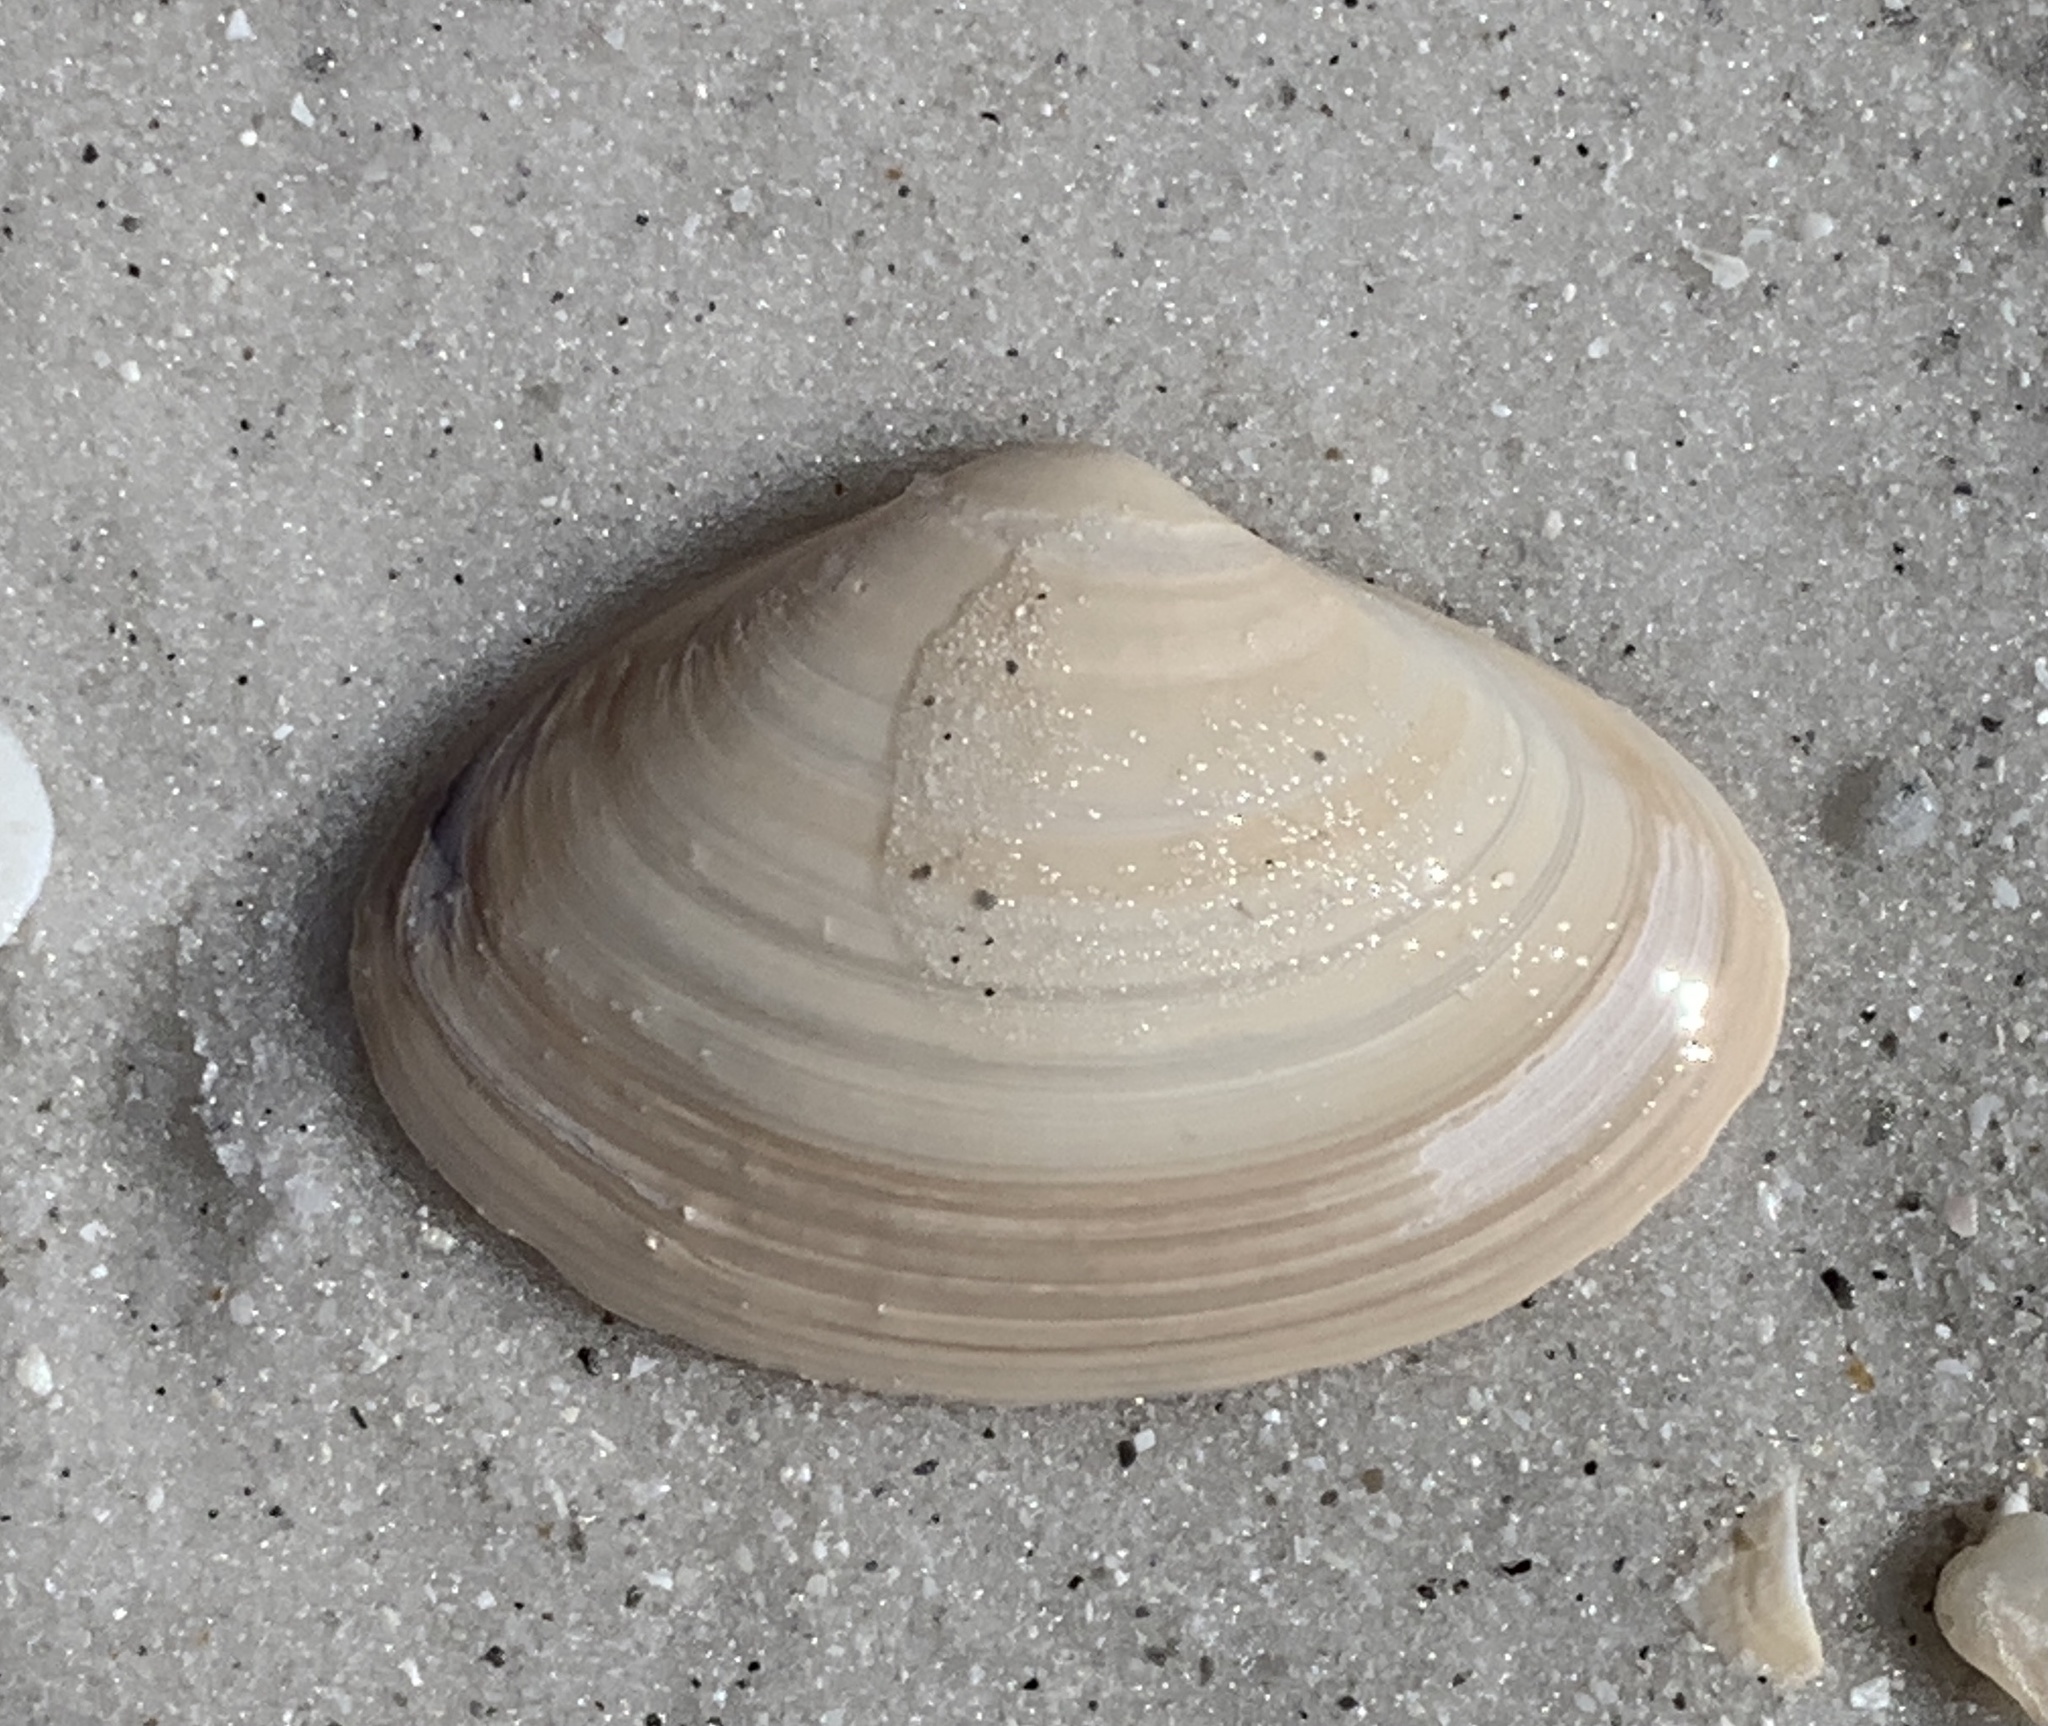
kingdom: Animalia
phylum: Mollusca
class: Bivalvia
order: Venerida
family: Mactridae
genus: Spisula
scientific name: Spisula raveneli
